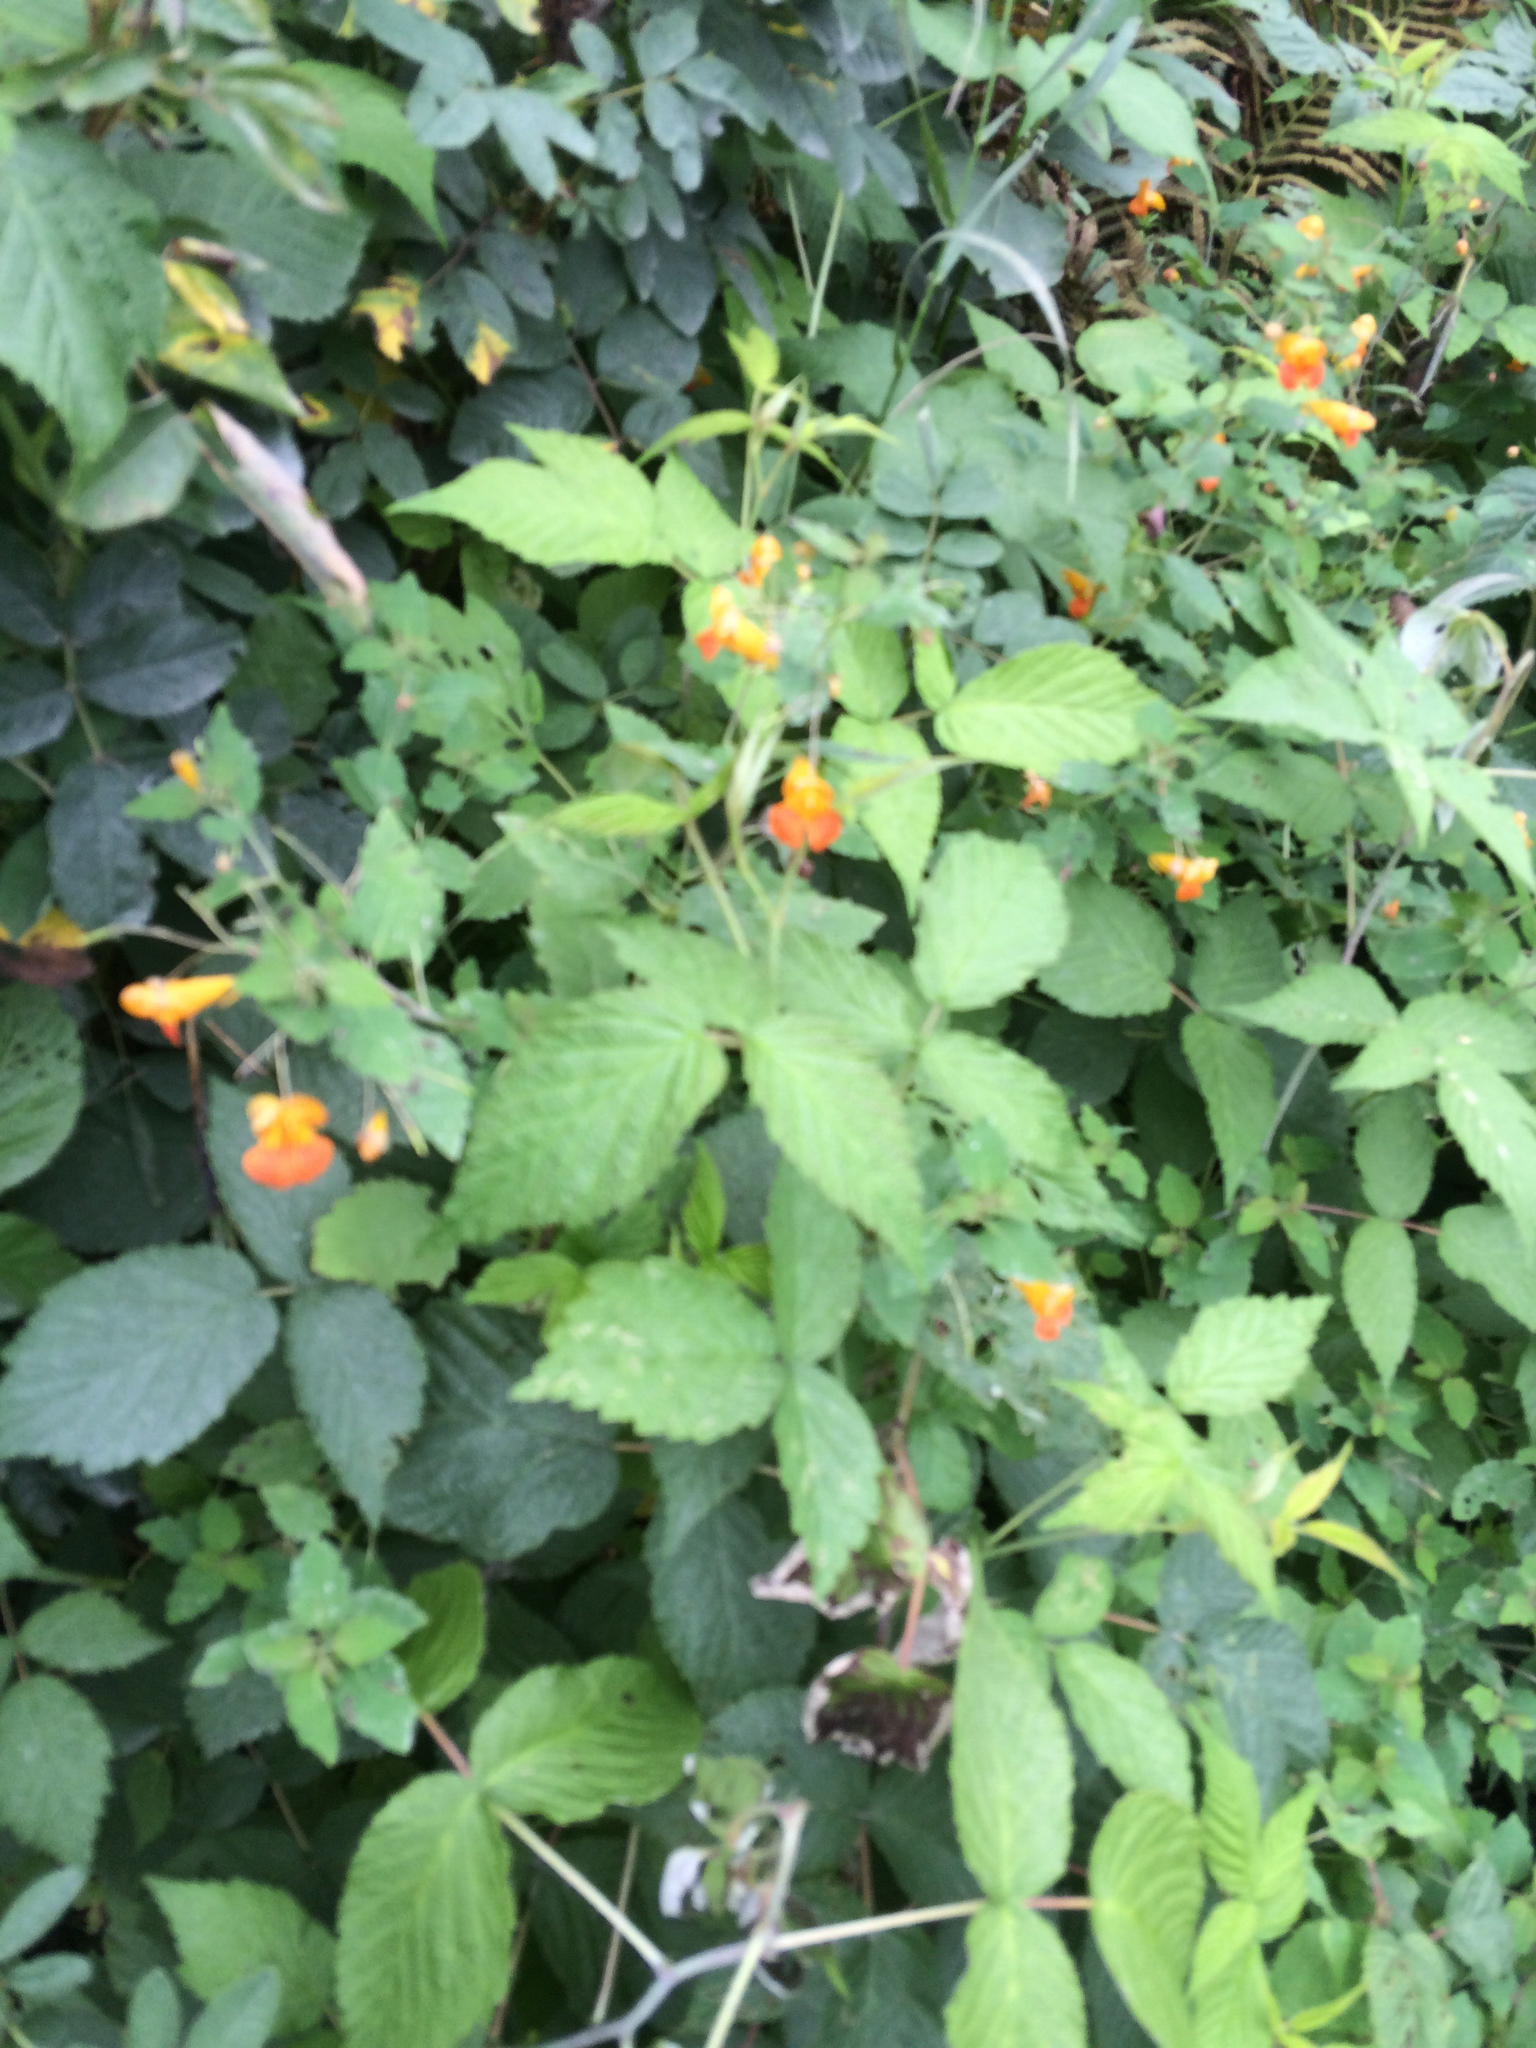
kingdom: Plantae
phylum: Tracheophyta
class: Magnoliopsida
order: Ericales
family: Balsaminaceae
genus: Impatiens
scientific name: Impatiens capensis
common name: Orange balsam
